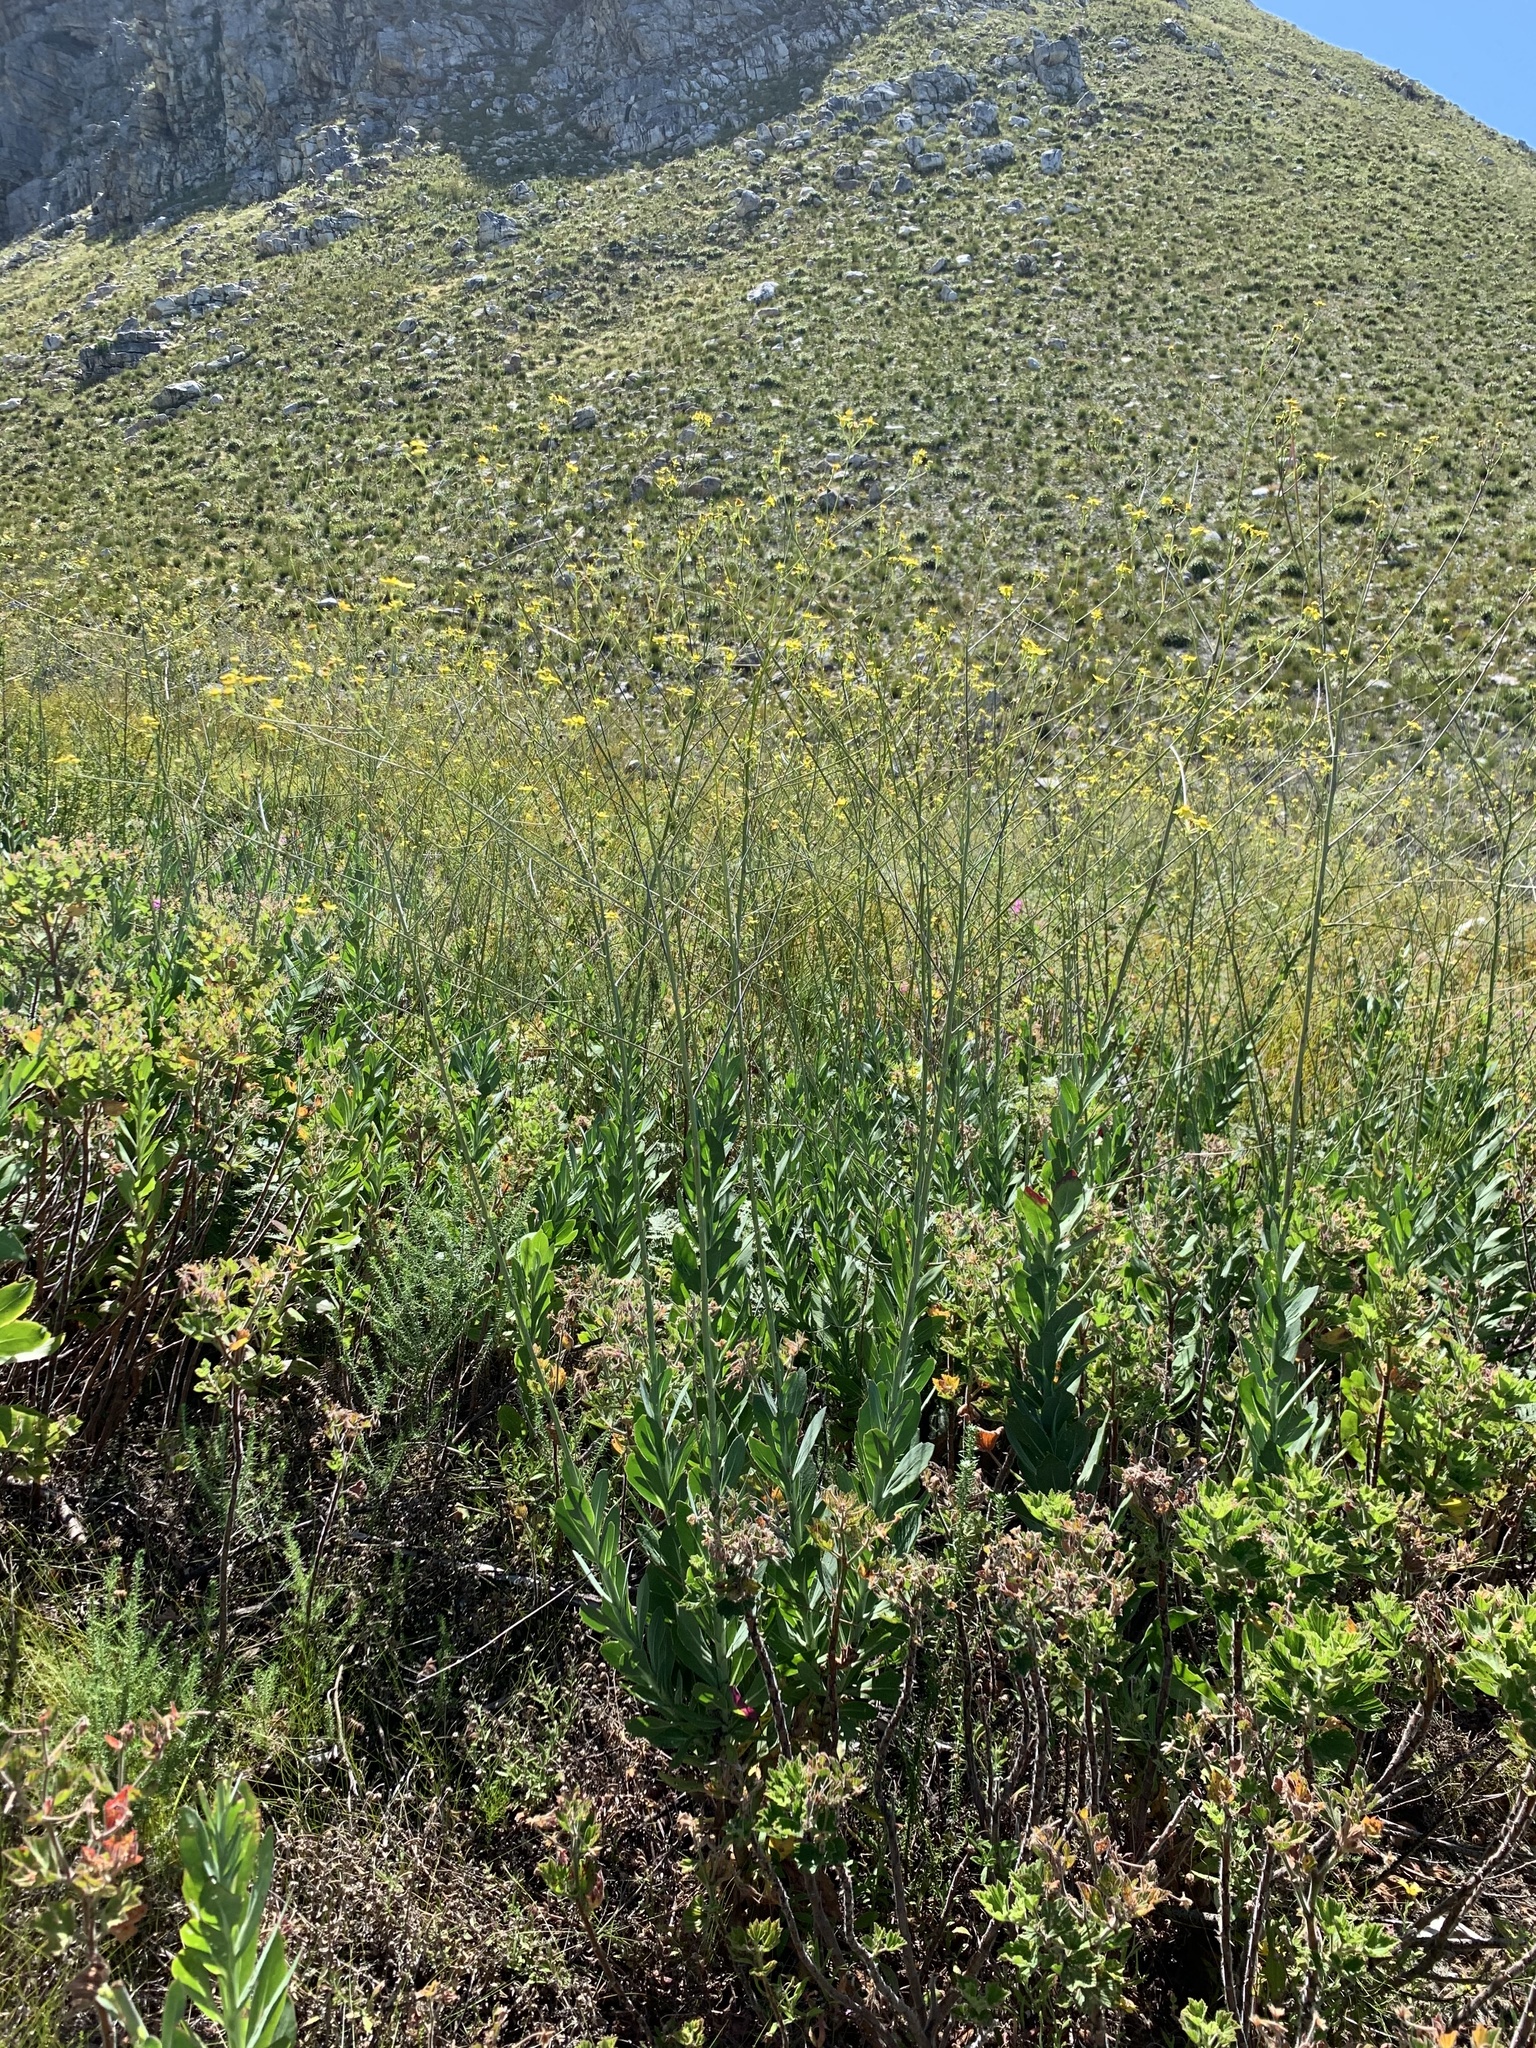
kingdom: Plantae
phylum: Tracheophyta
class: Magnoliopsida
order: Asterales
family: Asteraceae
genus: Othonna
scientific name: Othonna quinquedentata
